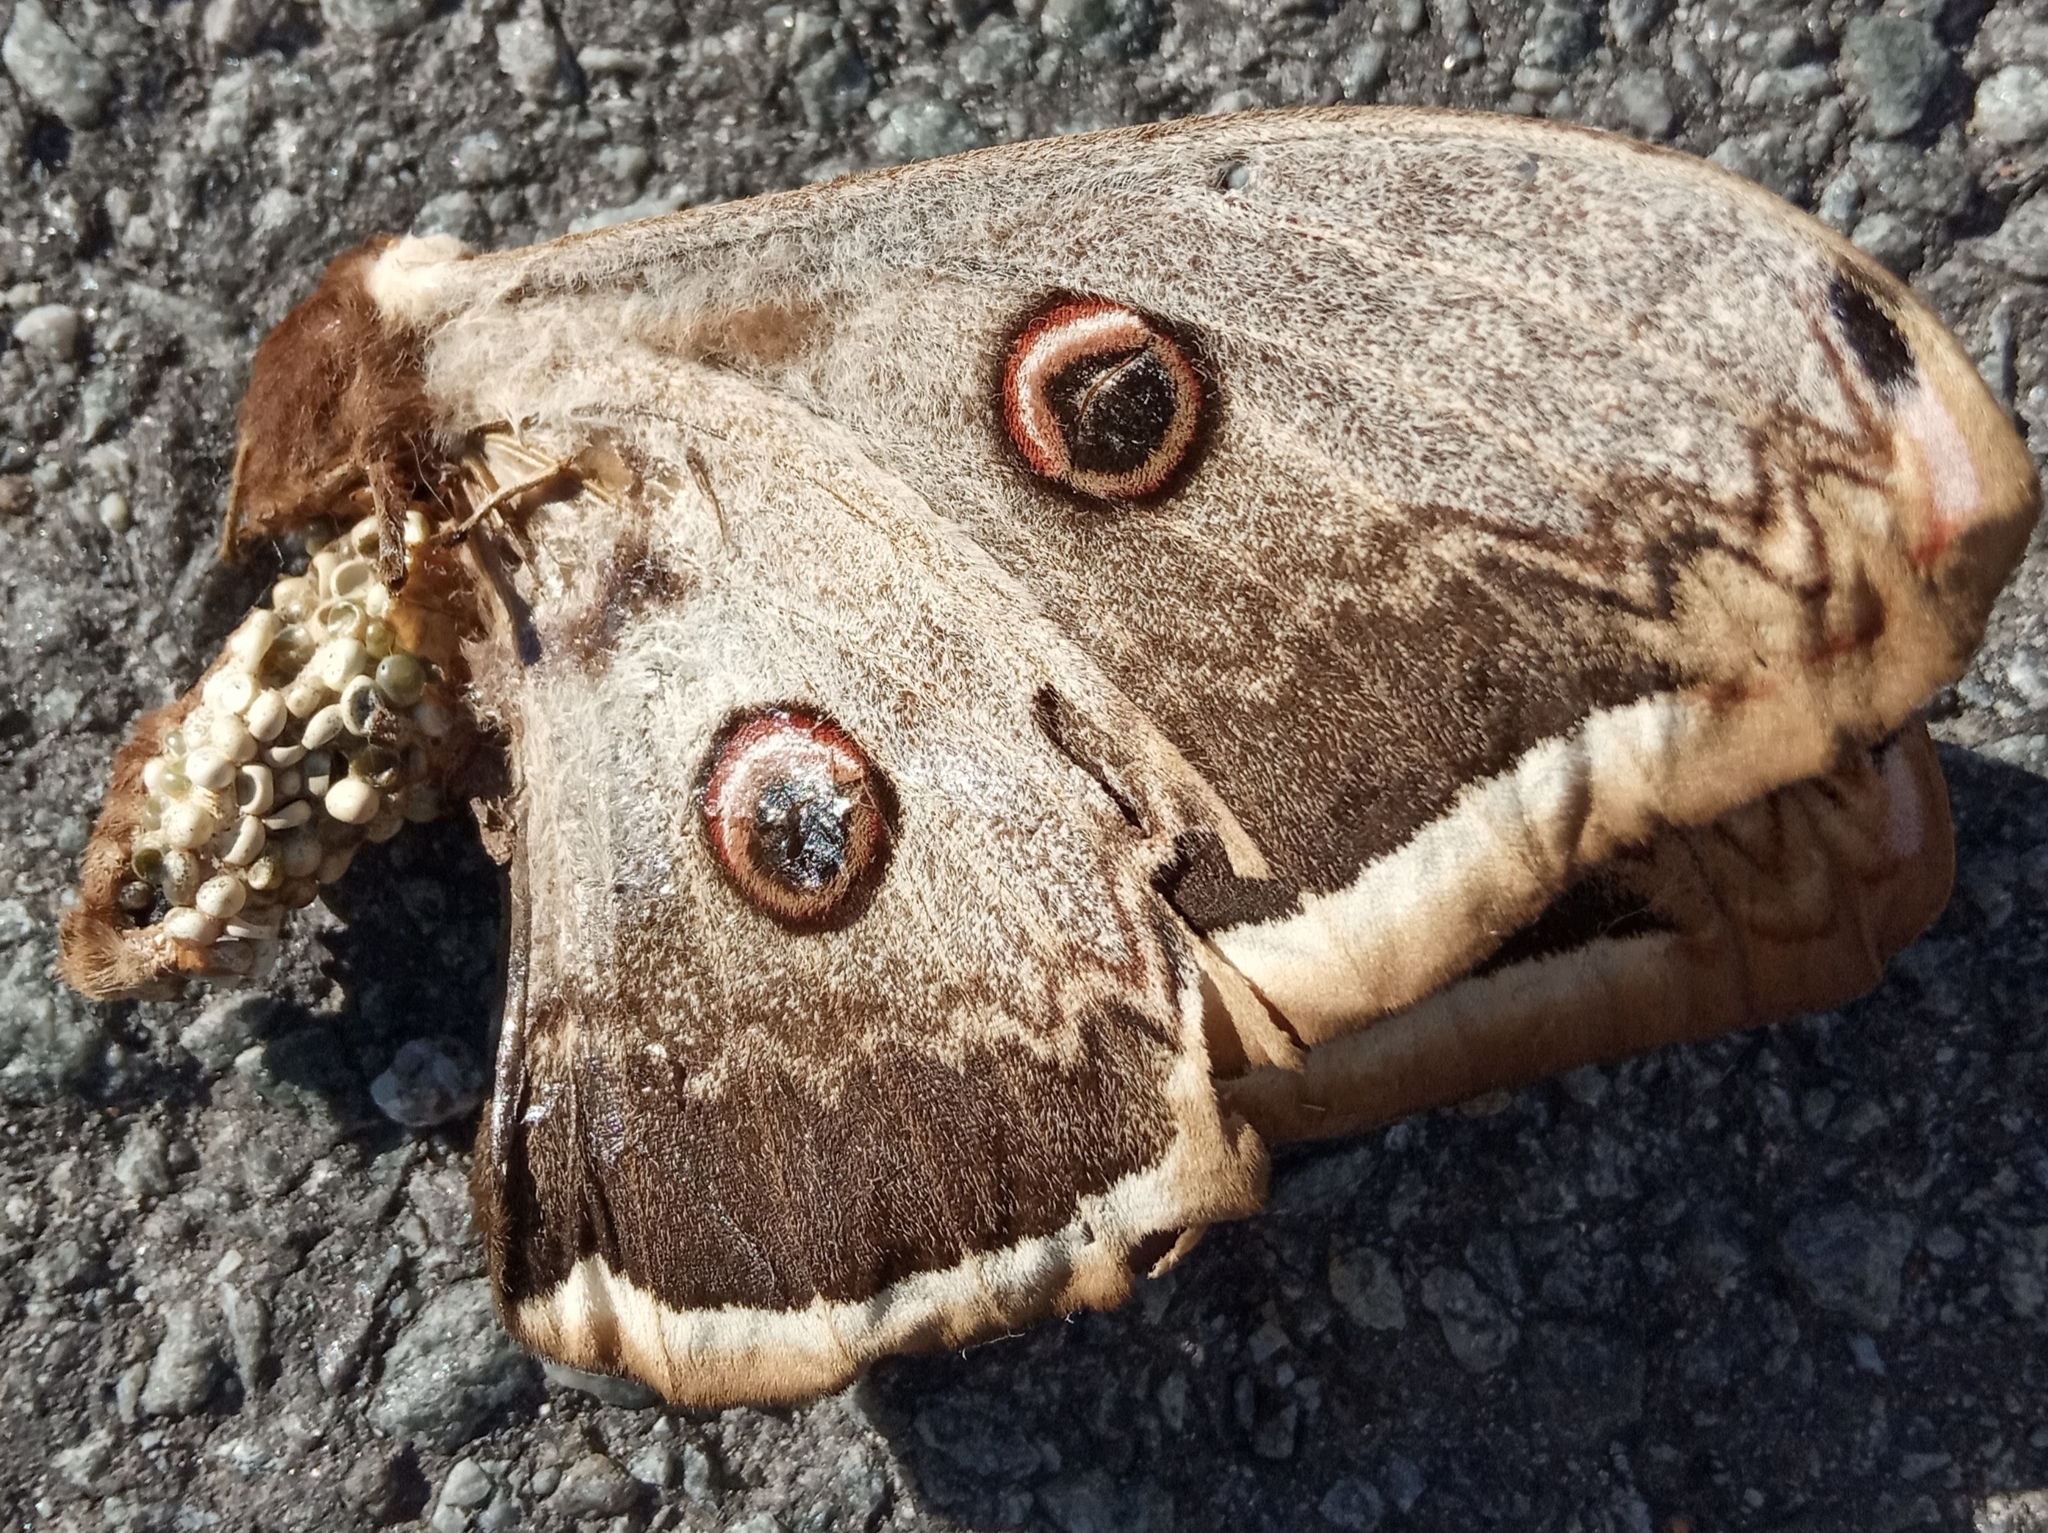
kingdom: Animalia
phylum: Arthropoda
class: Insecta
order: Lepidoptera
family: Saturniidae
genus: Saturnia
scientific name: Saturnia pyri
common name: Great peacock moth
